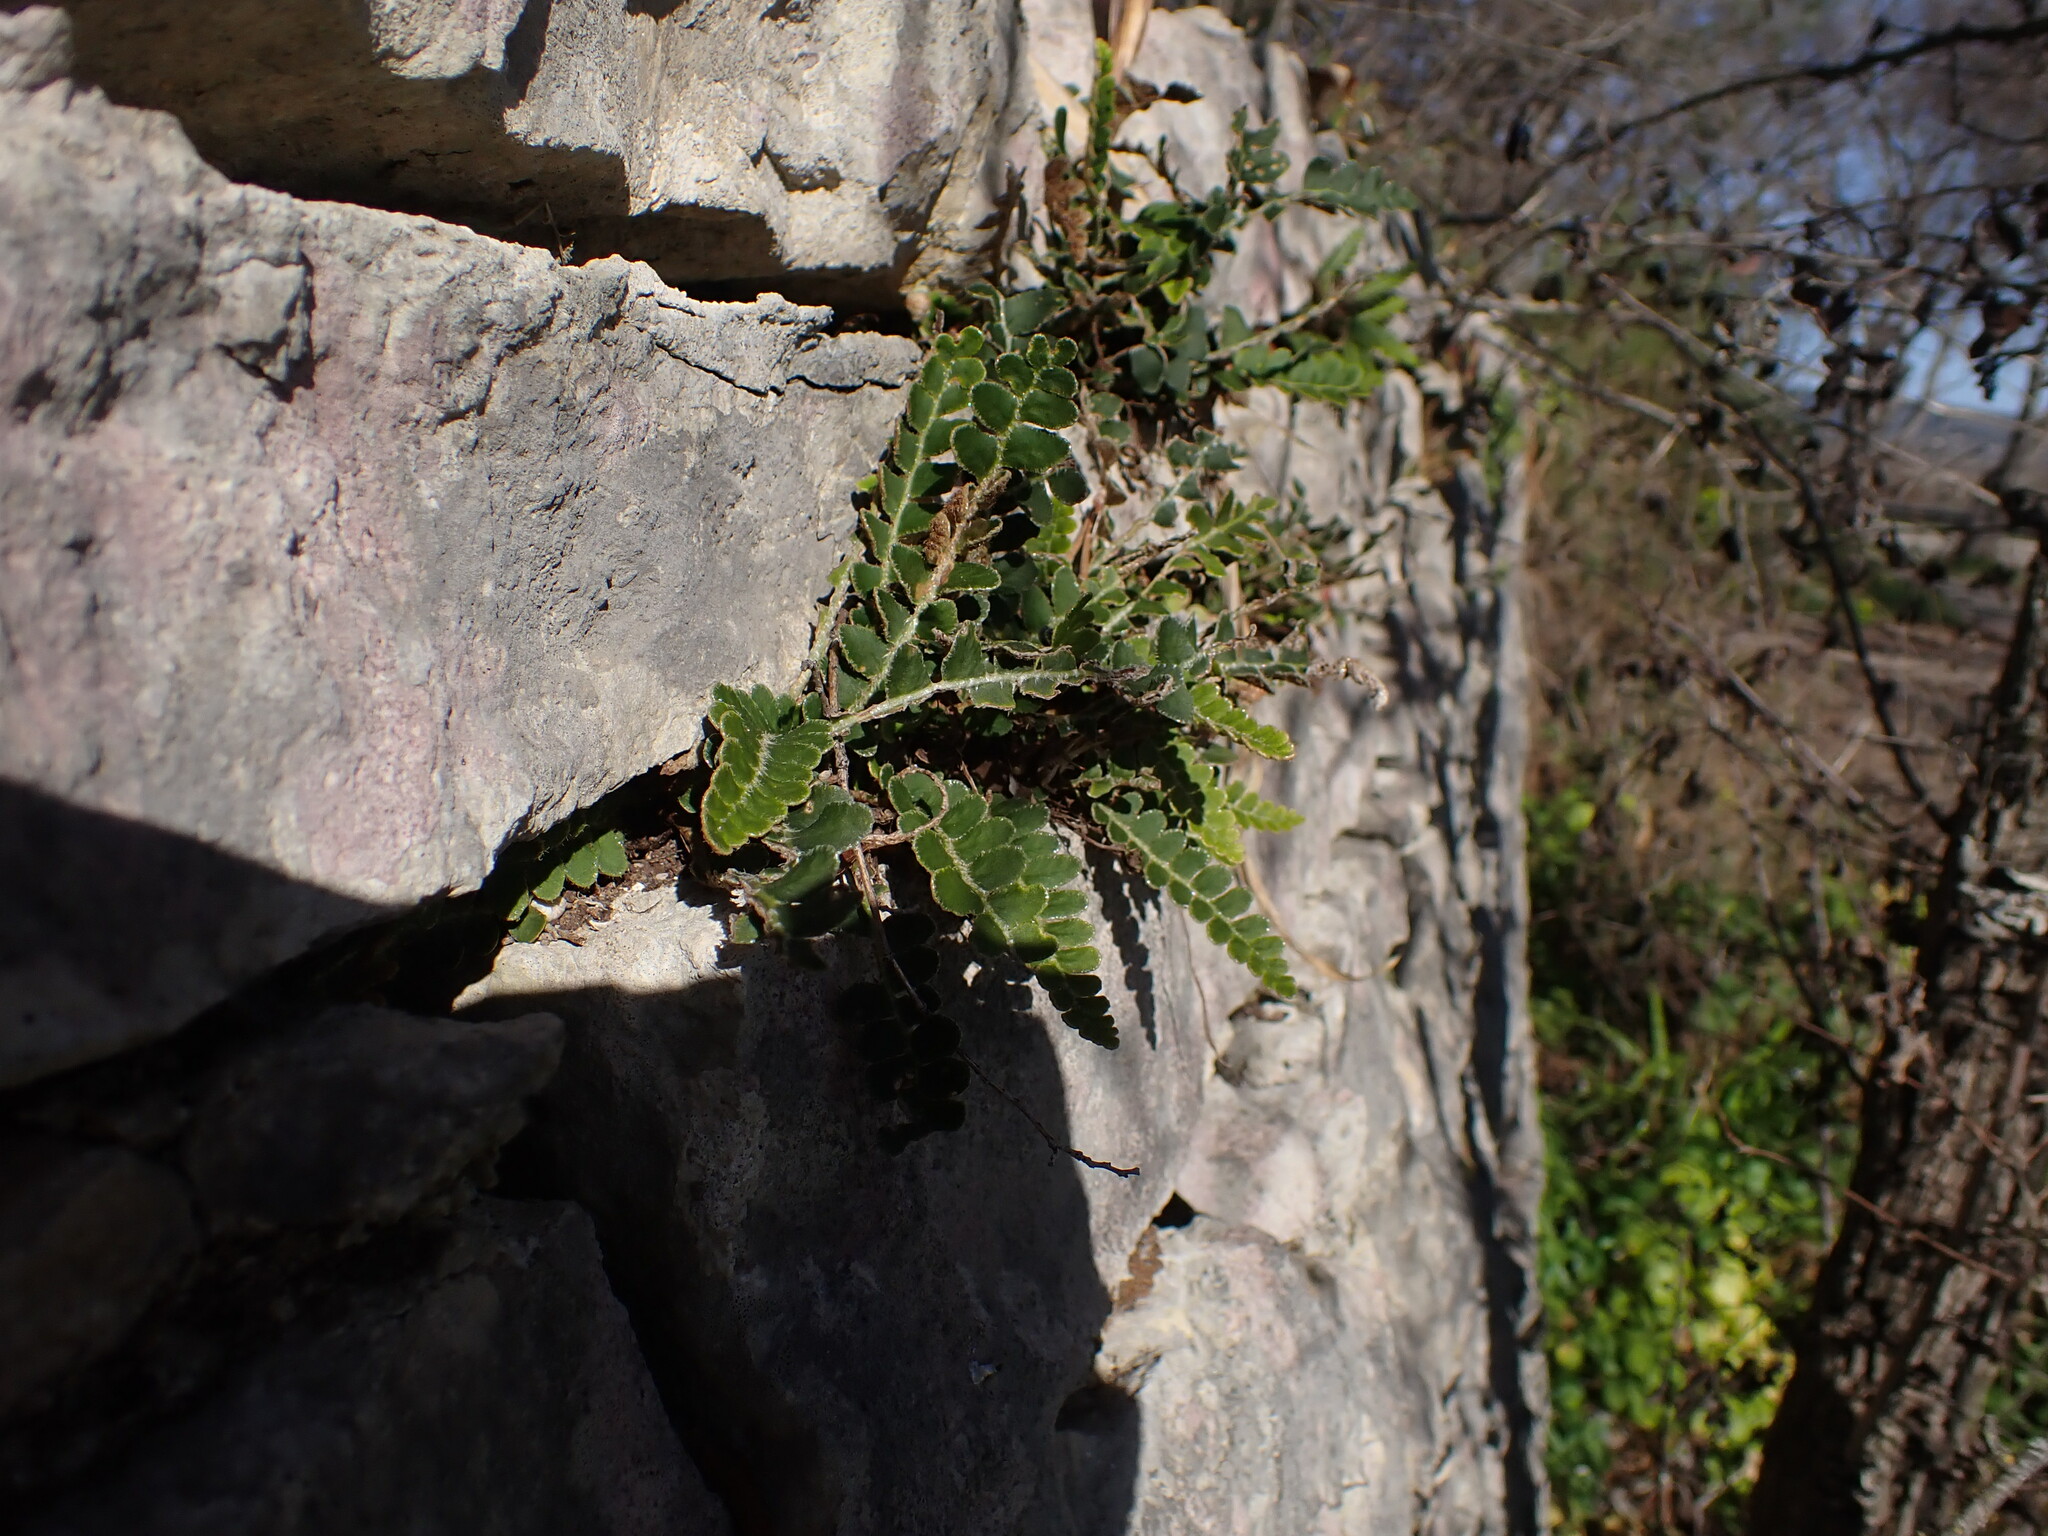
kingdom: Plantae
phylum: Tracheophyta
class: Polypodiopsida
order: Polypodiales
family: Aspleniaceae
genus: Asplenium
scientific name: Asplenium ceterach
